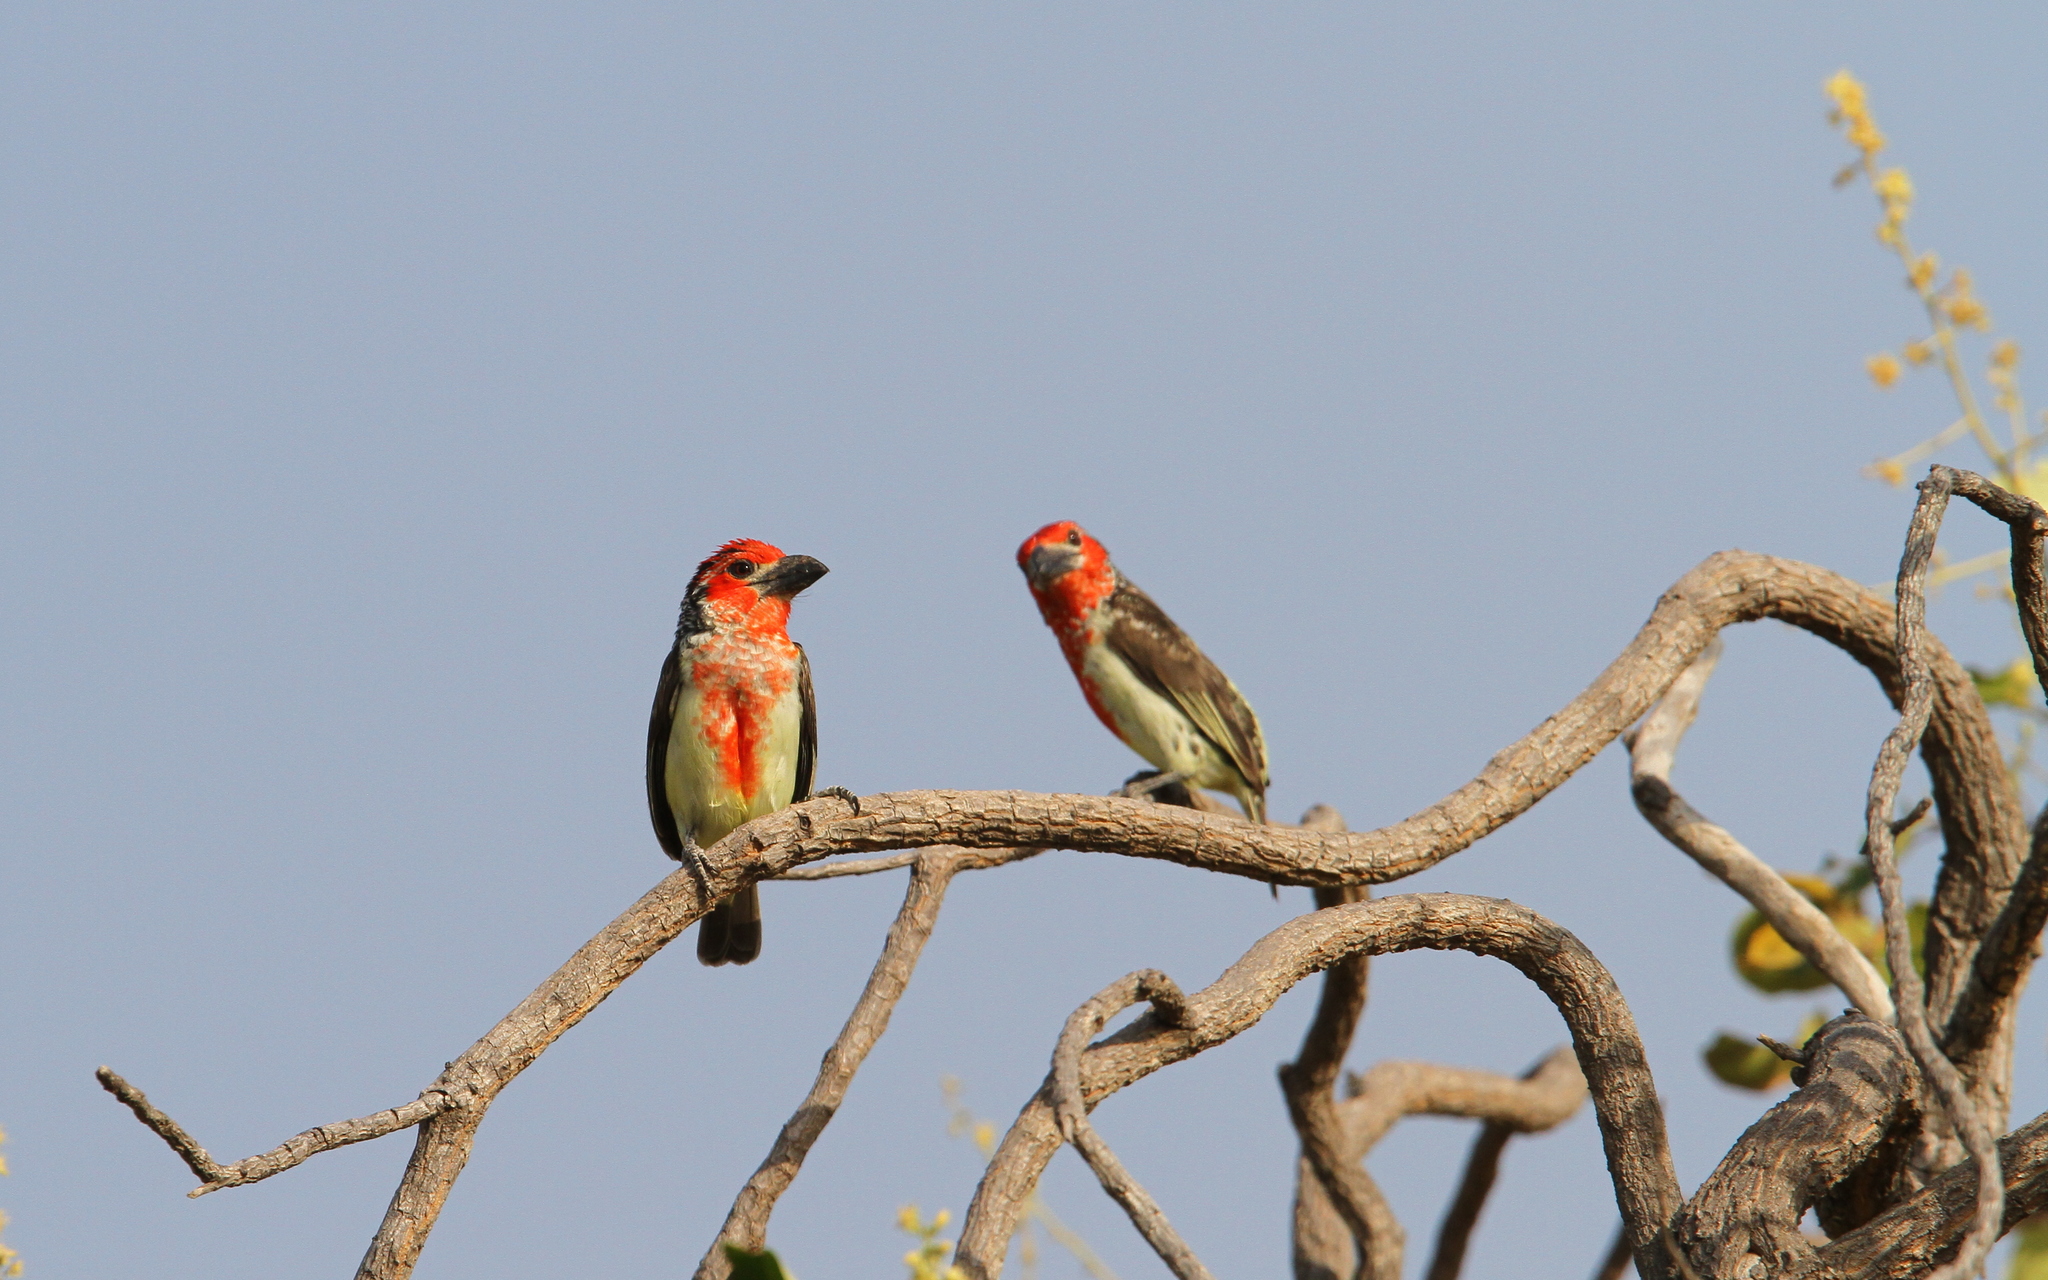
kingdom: Animalia
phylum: Chordata
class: Aves
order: Piciformes
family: Lybiidae
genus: Lybius
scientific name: Lybius vieilloti
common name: Vieillot's barbet
